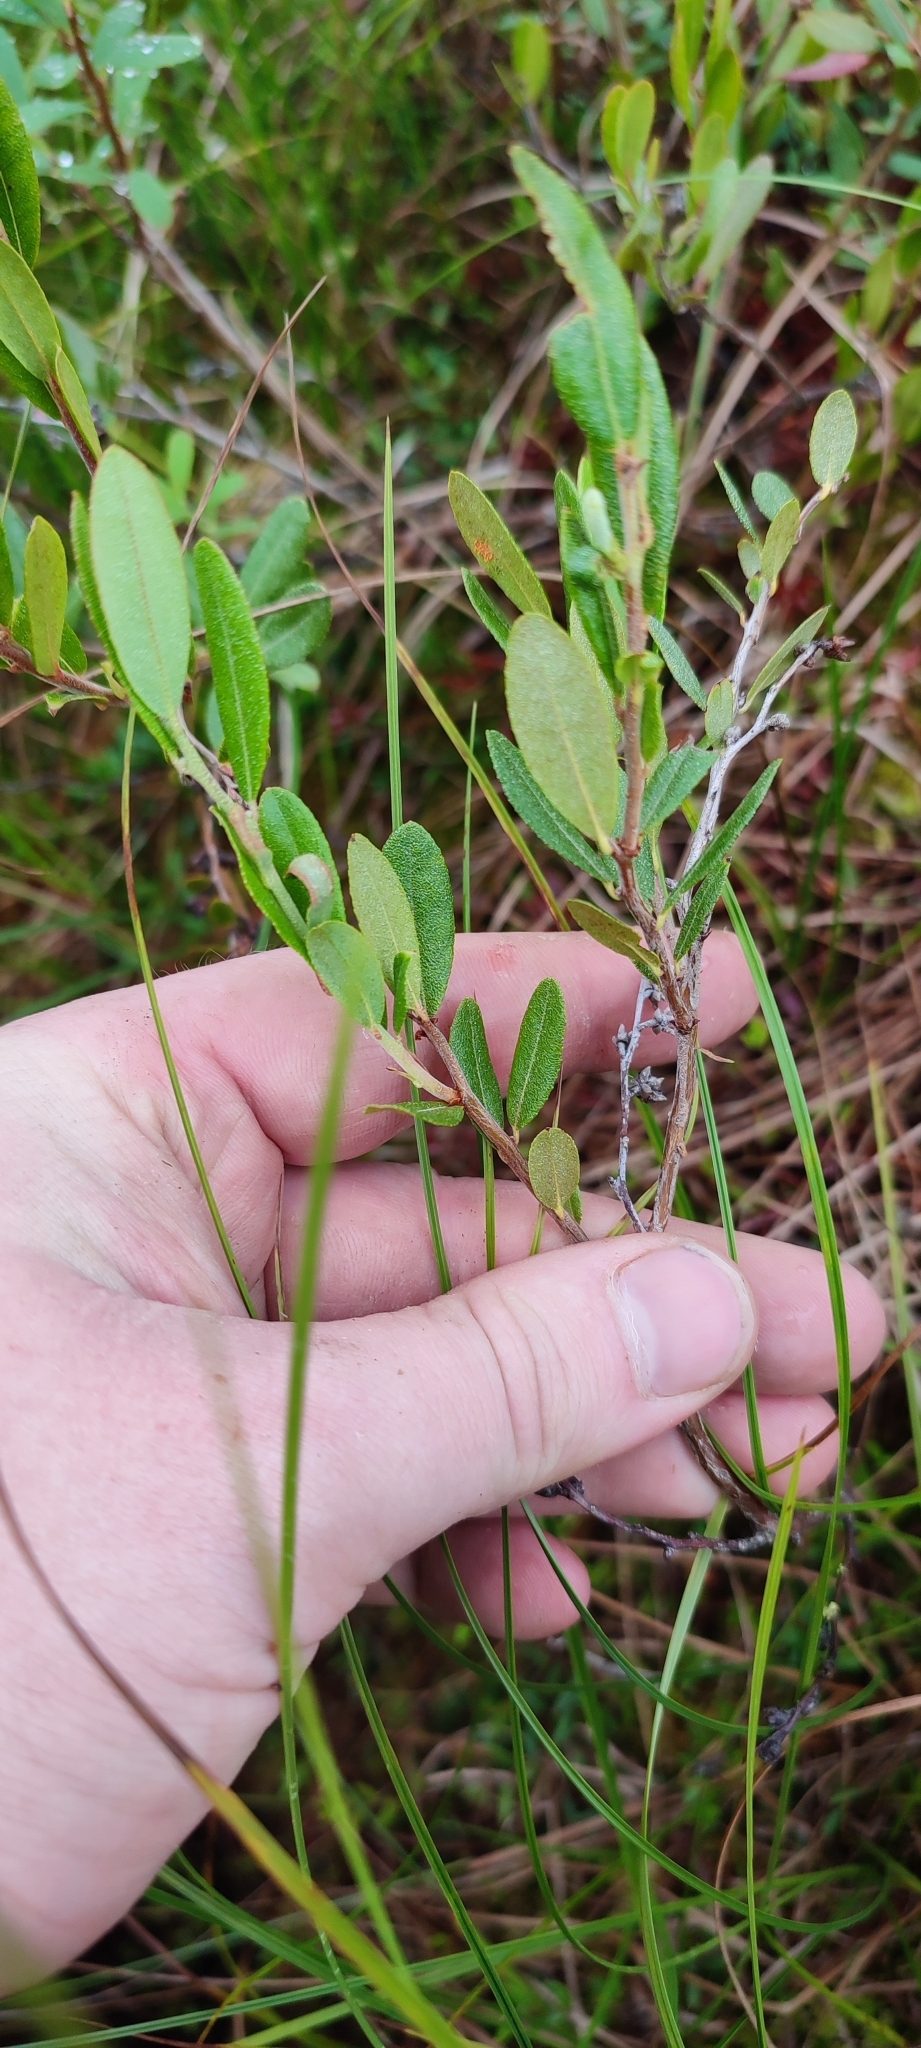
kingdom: Plantae
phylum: Tracheophyta
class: Magnoliopsida
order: Ericales
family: Ericaceae
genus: Chamaedaphne
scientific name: Chamaedaphne calyculata
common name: Leatherleaf
